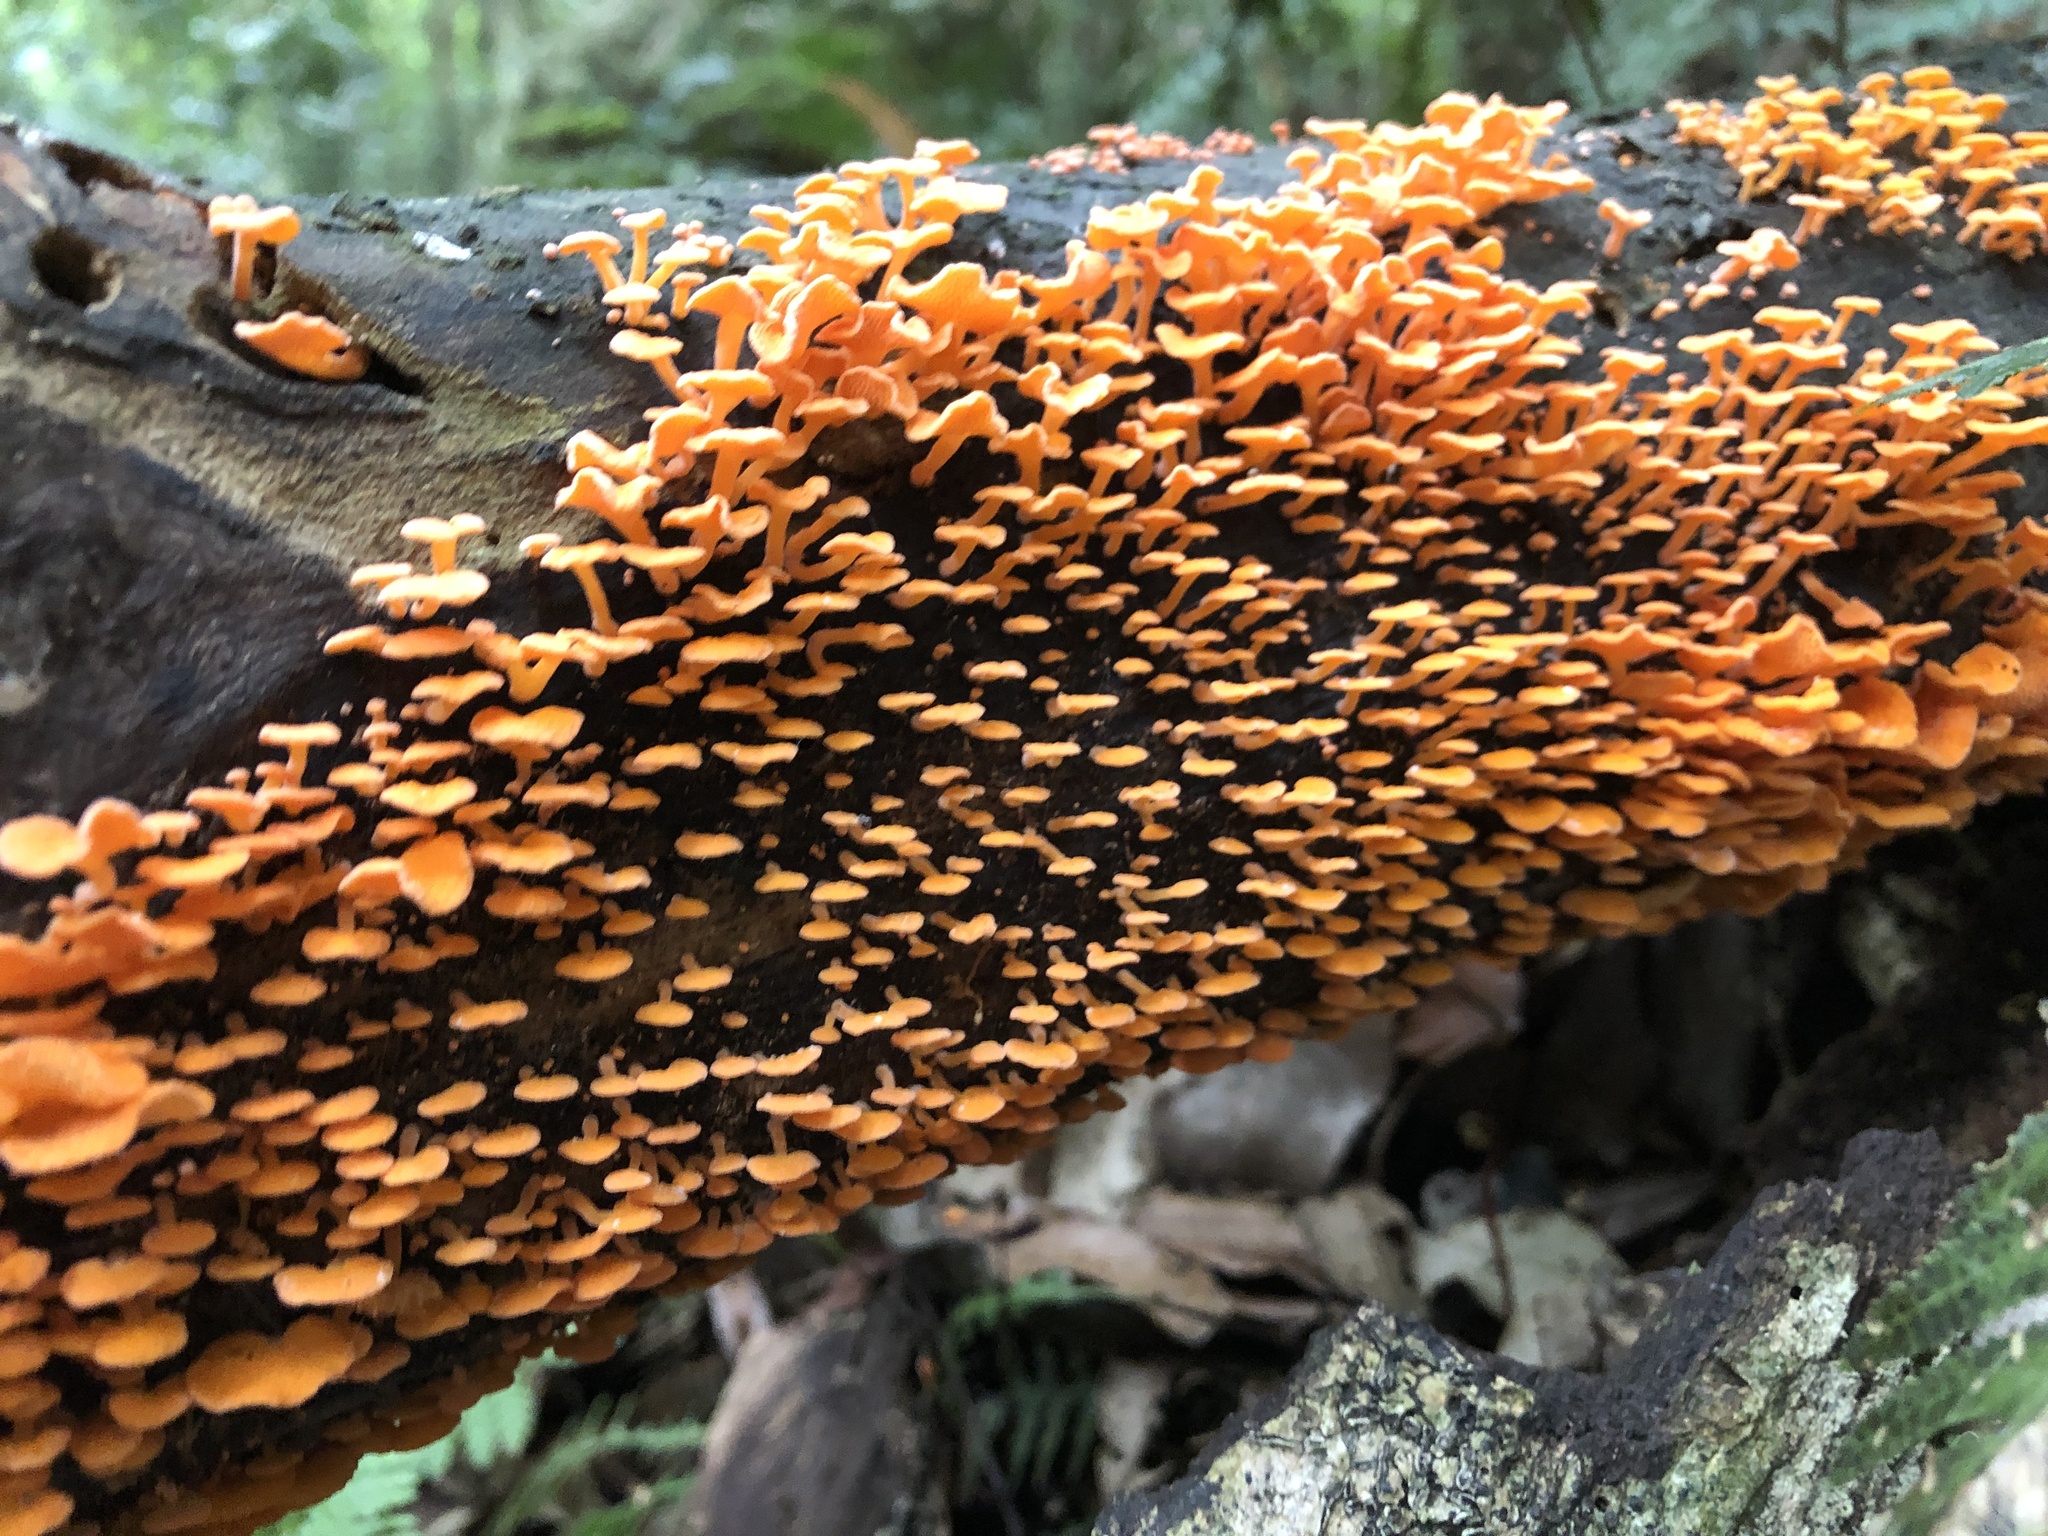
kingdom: Fungi
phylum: Basidiomycota
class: Agaricomycetes
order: Agaricales
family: Mycenaceae
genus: Favolaschia
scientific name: Favolaschia claudopus
